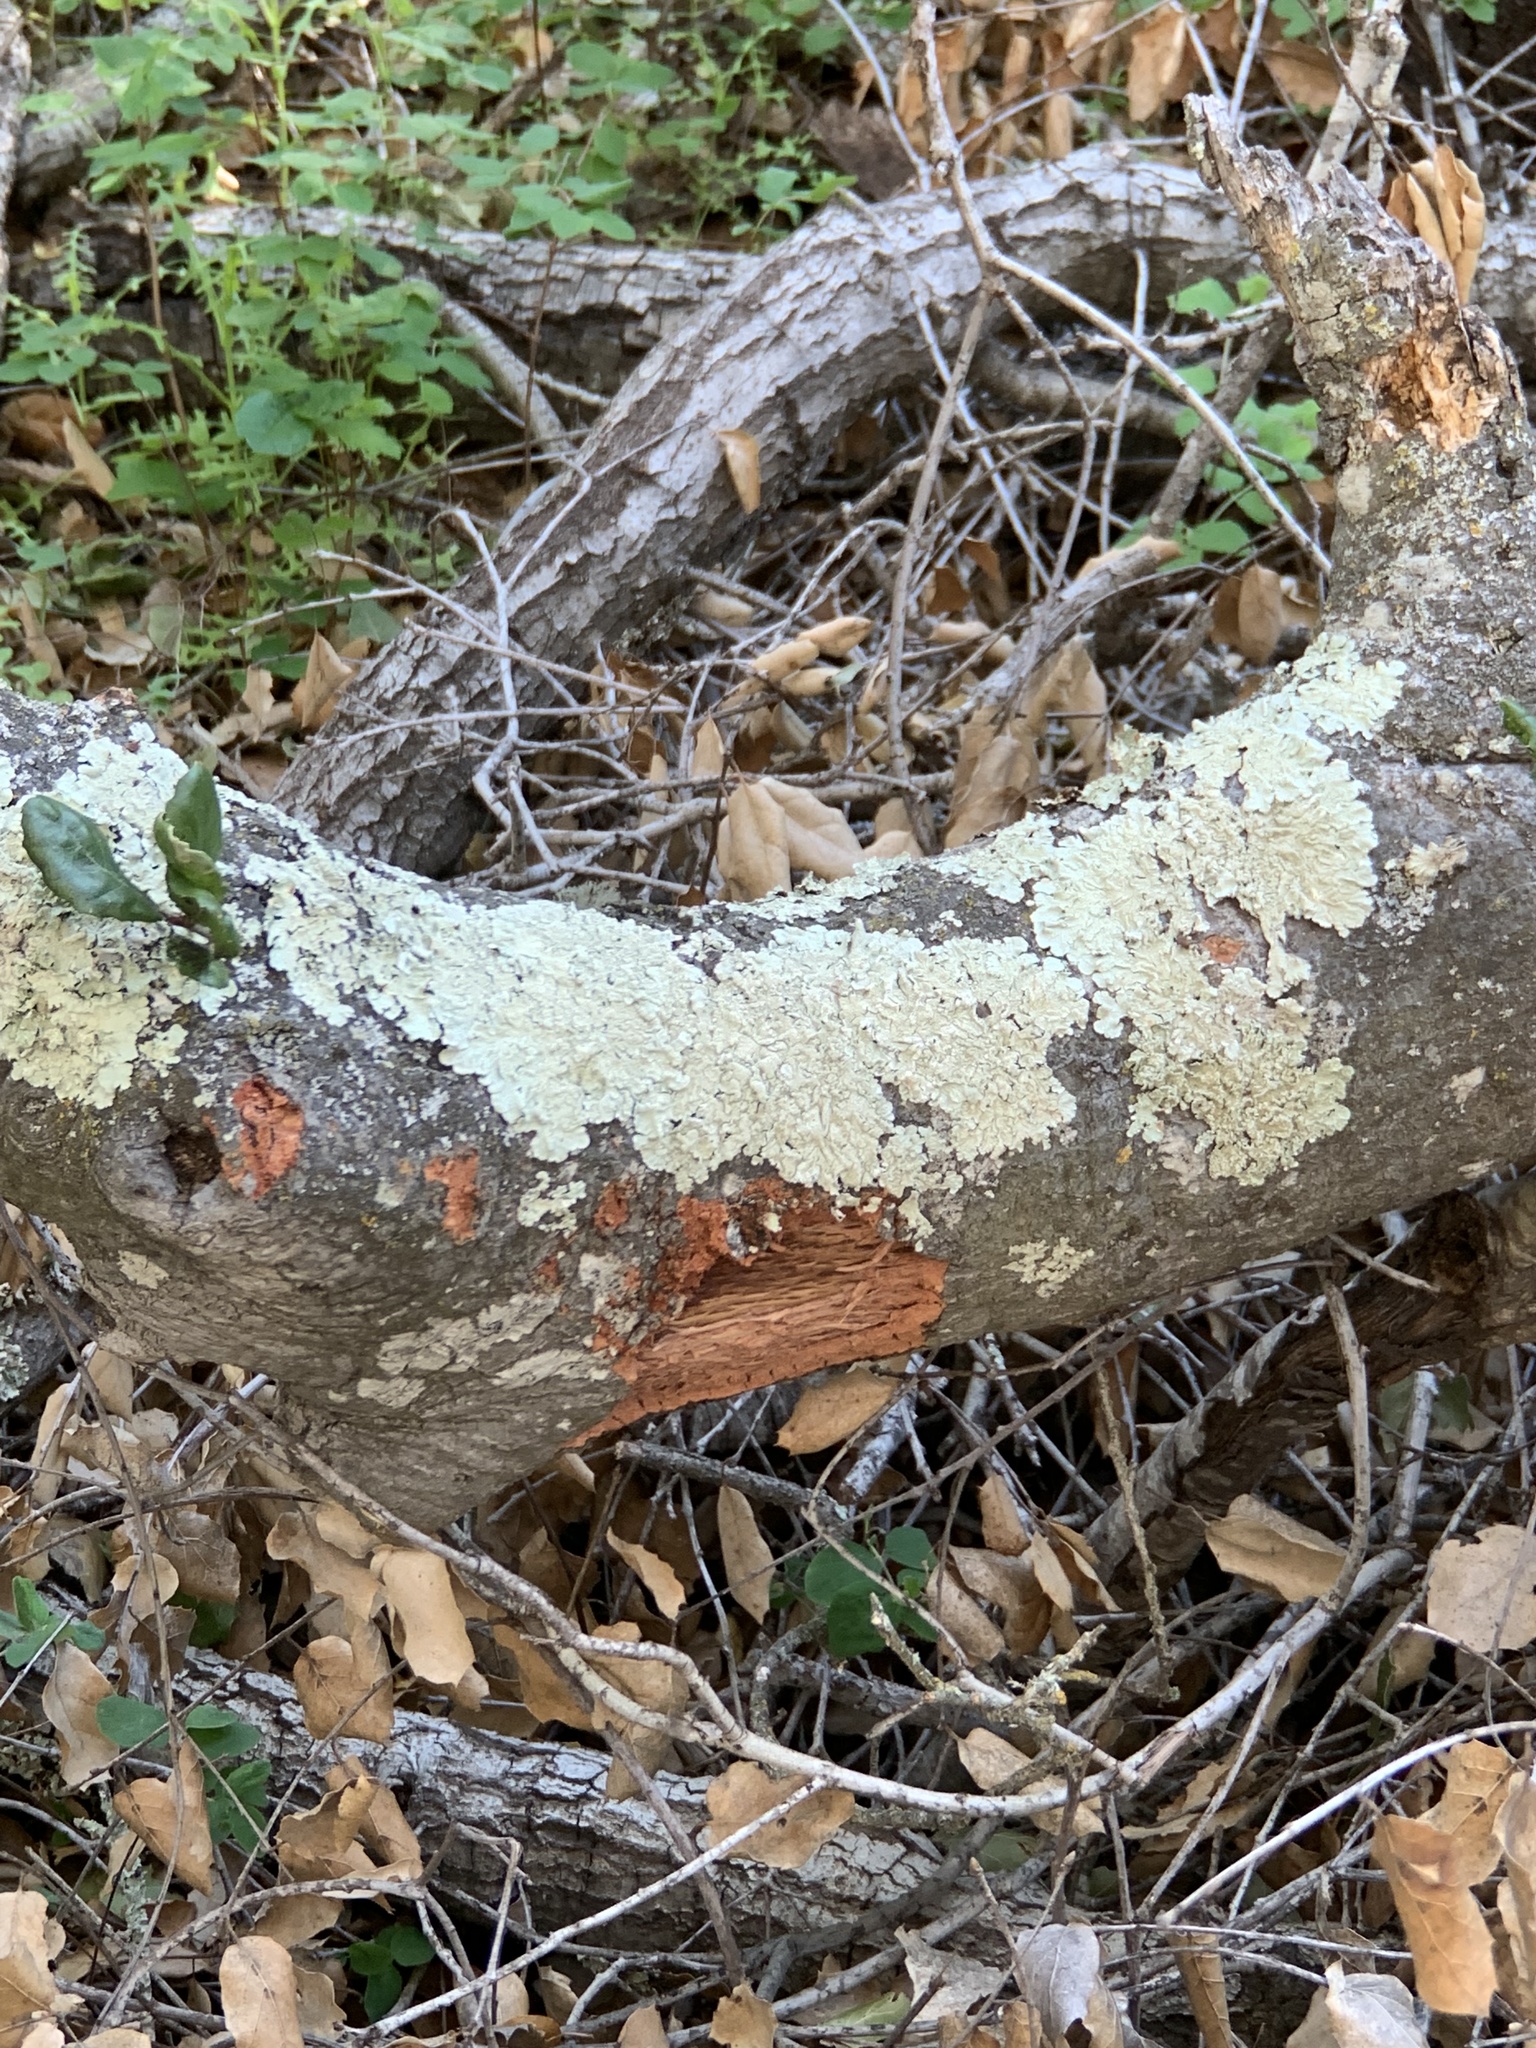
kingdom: Fungi
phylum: Ascomycota
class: Lecanoromycetes
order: Lecanorales
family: Parmeliaceae
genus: Flavoparmelia
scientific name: Flavoparmelia caperata
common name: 40-mile per hour lichen
